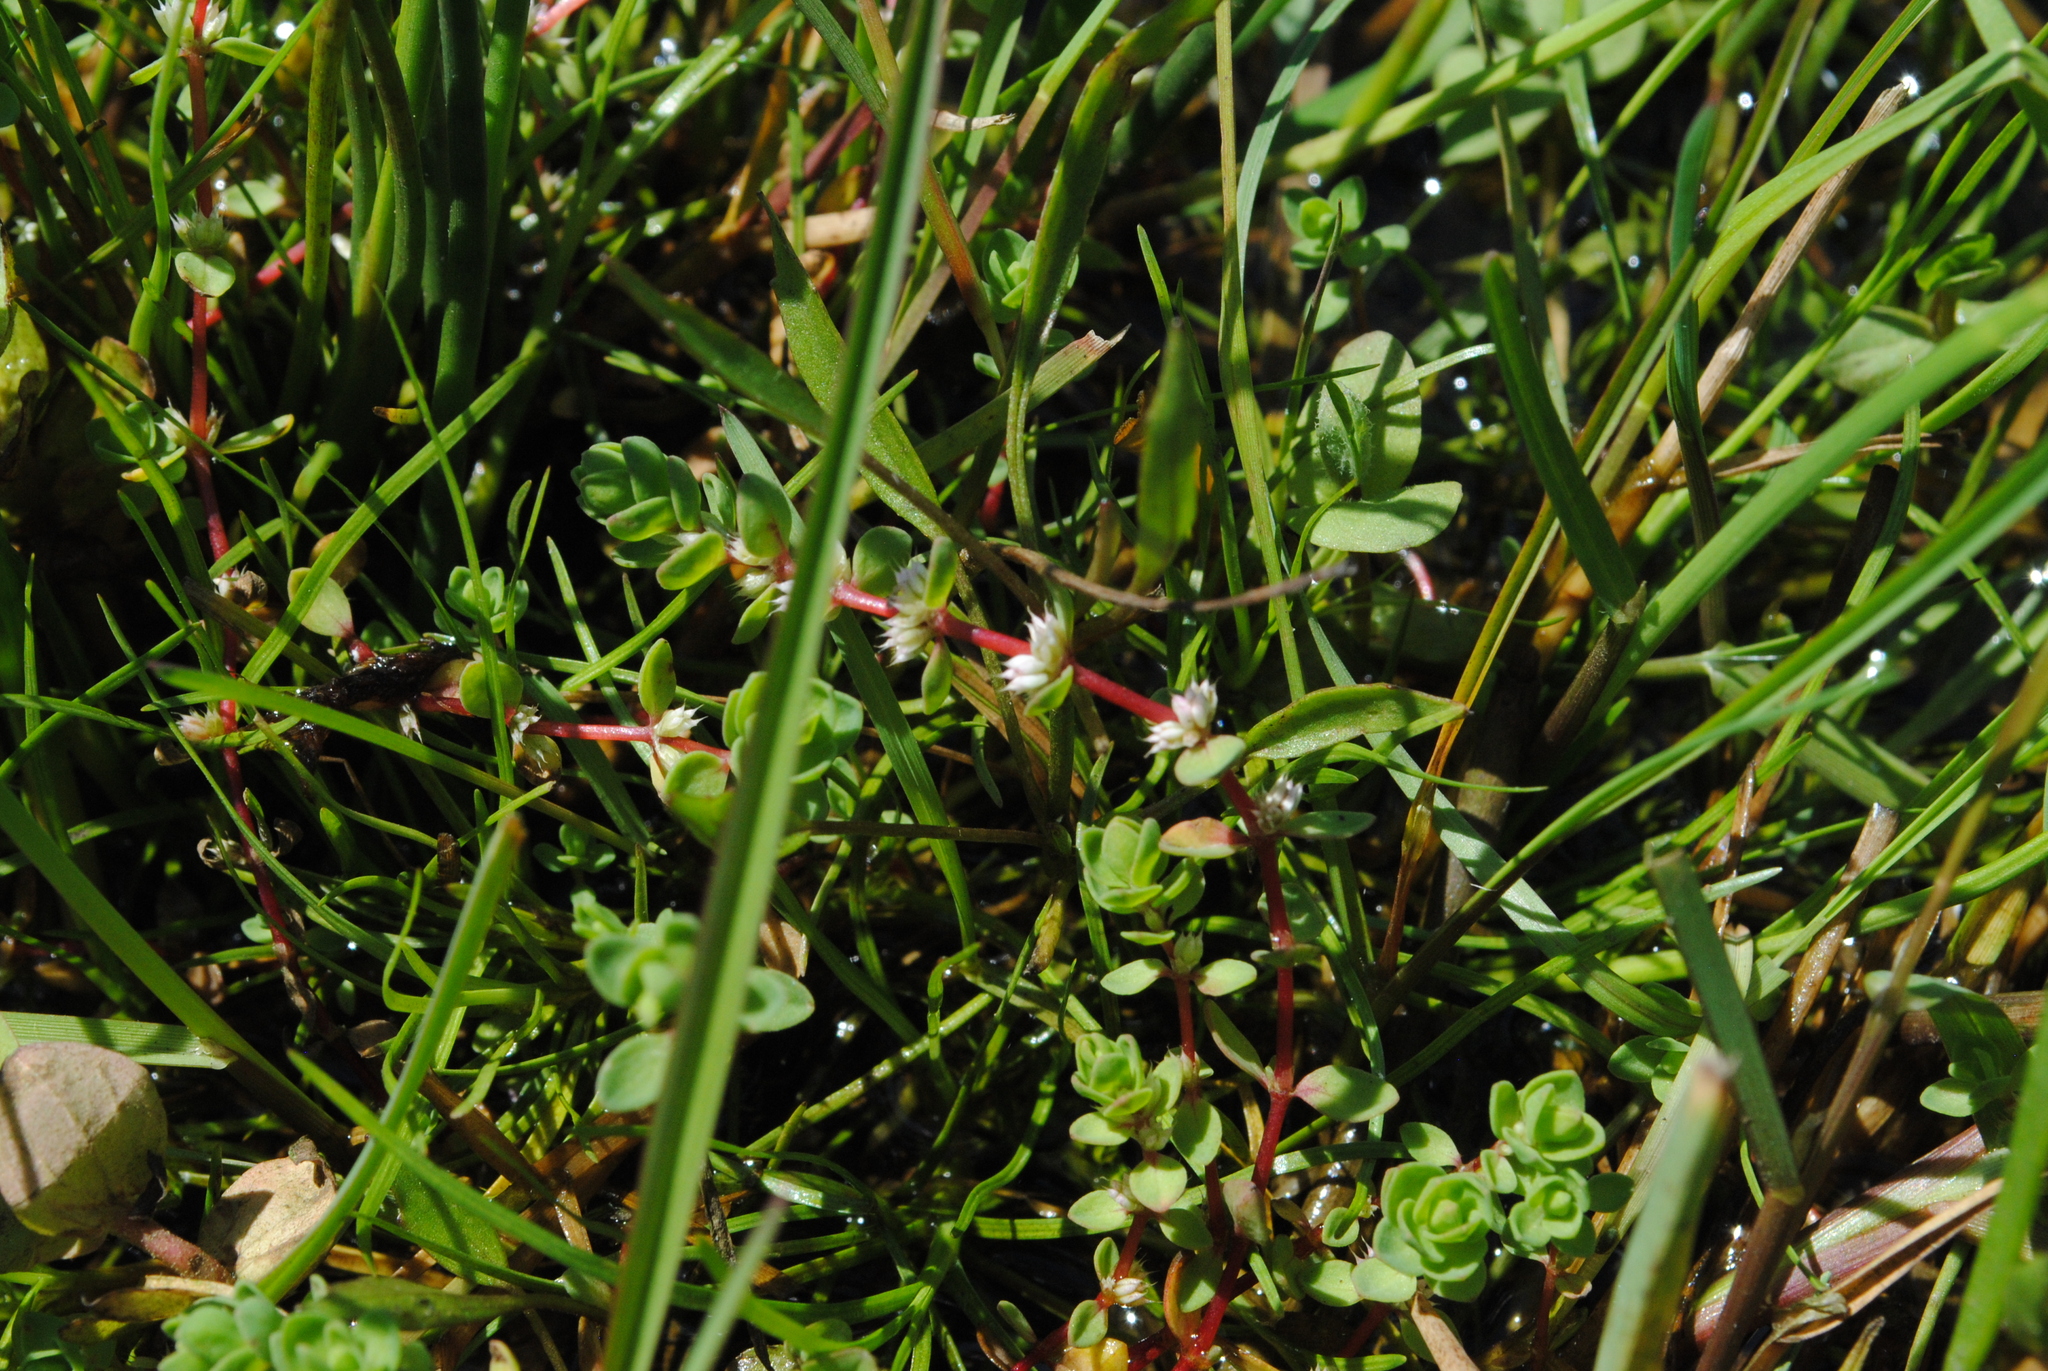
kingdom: Plantae
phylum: Tracheophyta
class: Magnoliopsida
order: Caryophyllales
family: Caryophyllaceae
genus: Illecebrum
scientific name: Illecebrum verticillatum
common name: Coral necklace
